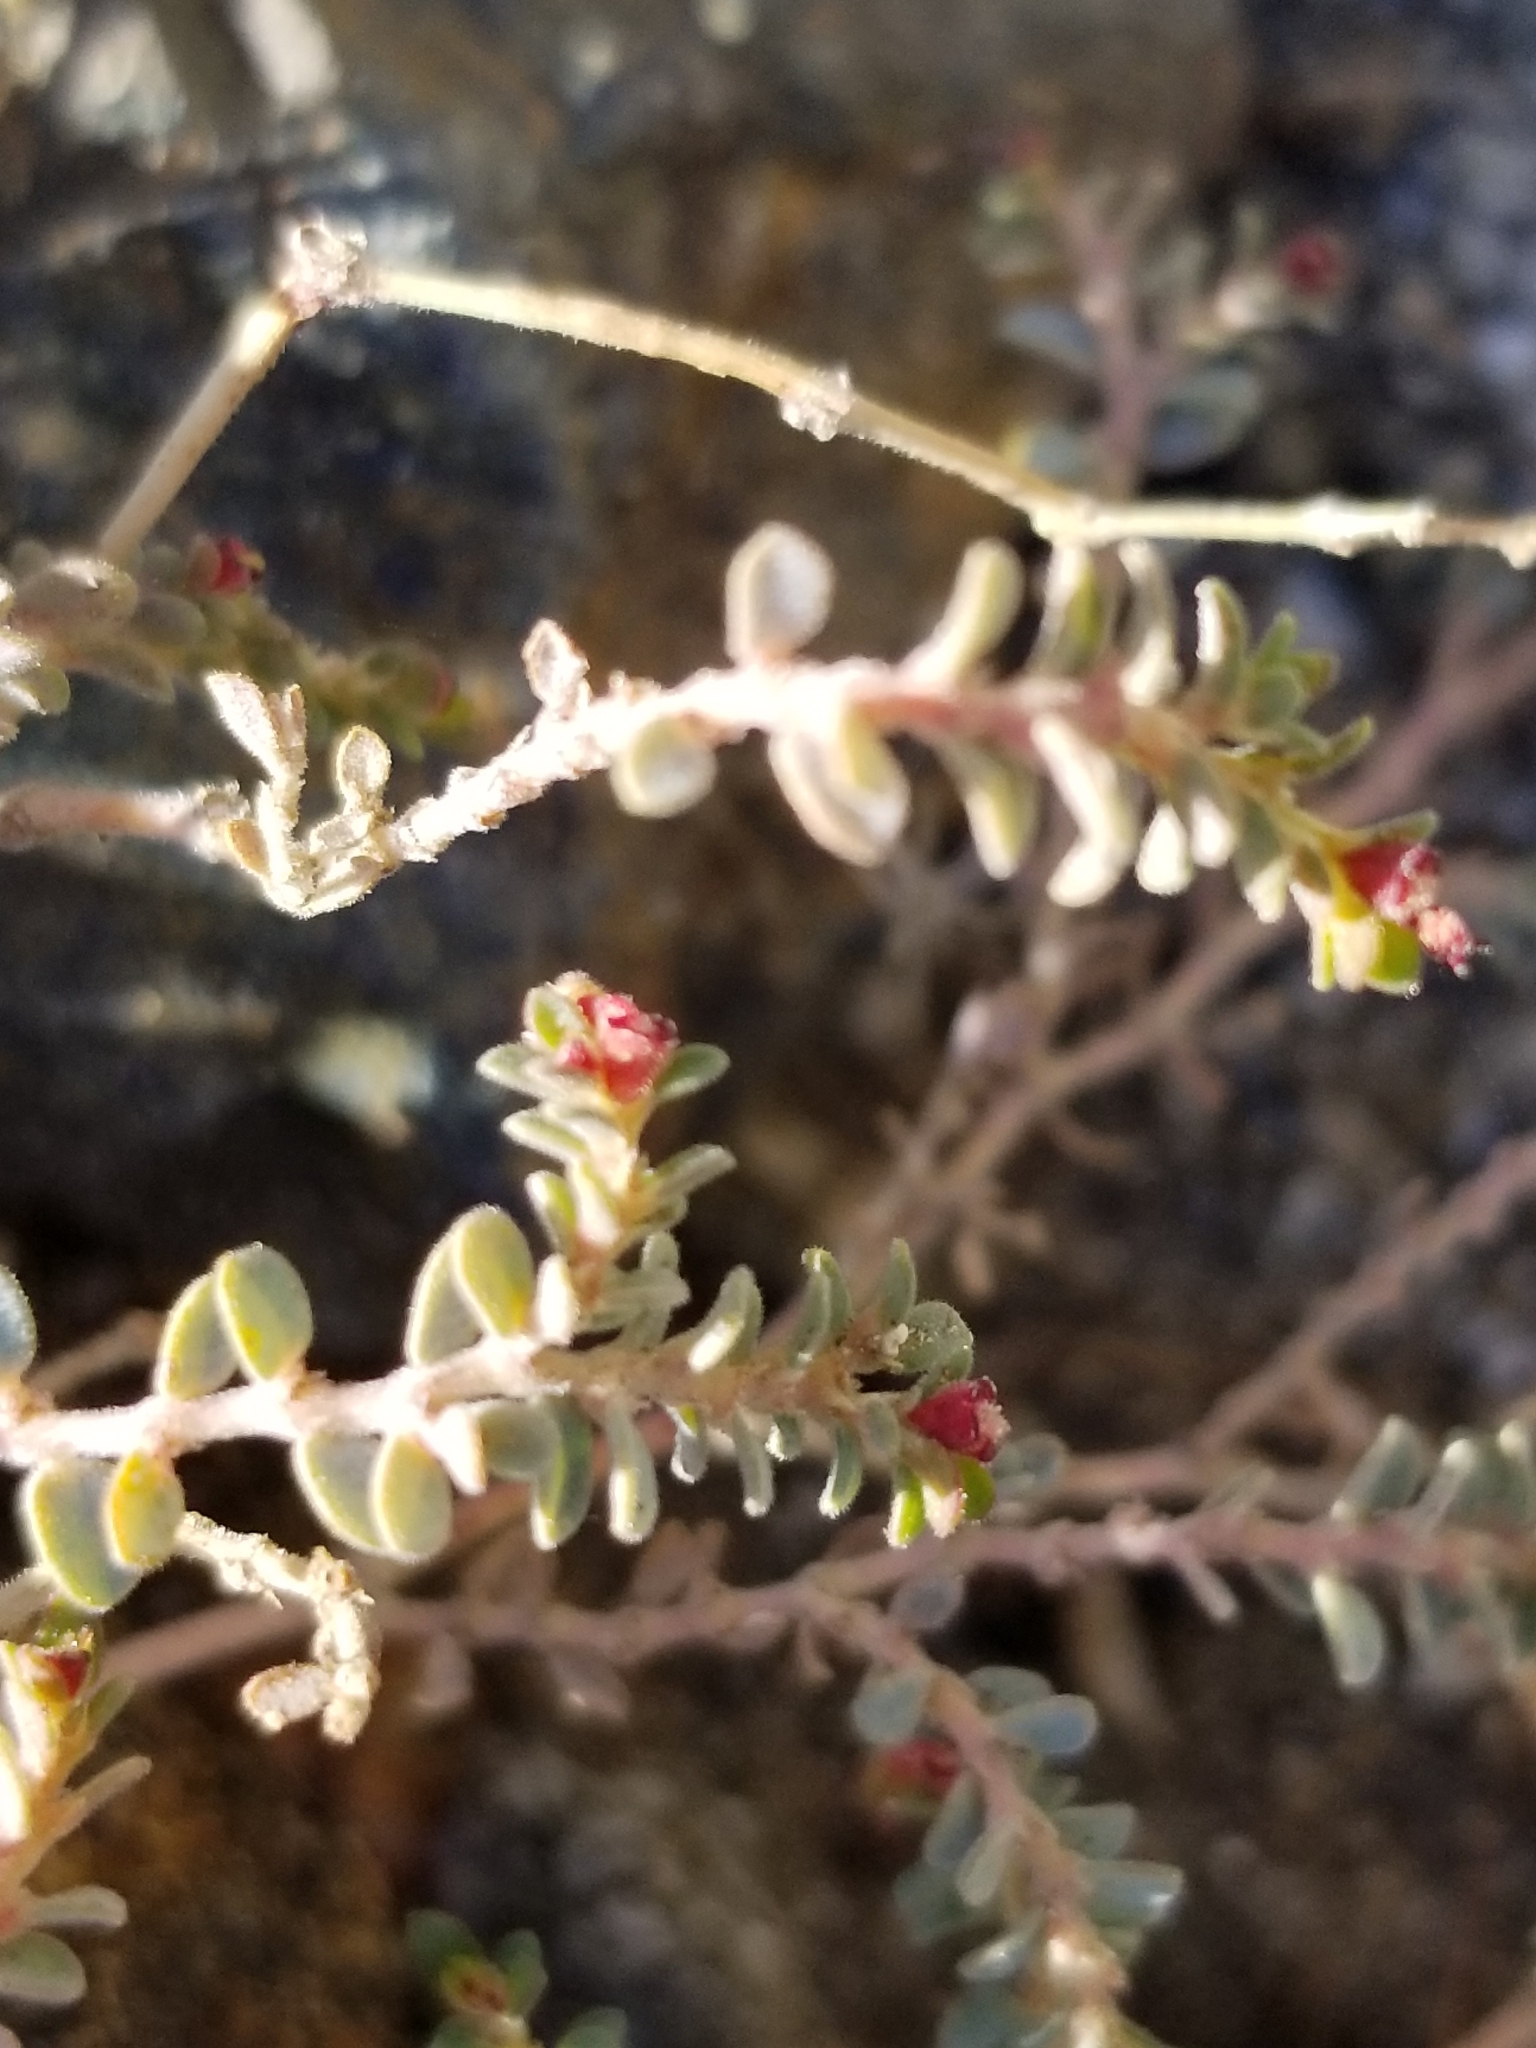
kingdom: Plantae
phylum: Tracheophyta
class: Magnoliopsida
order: Malpighiales
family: Euphorbiaceae
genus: Euphorbia
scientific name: Euphorbia polycarpa
